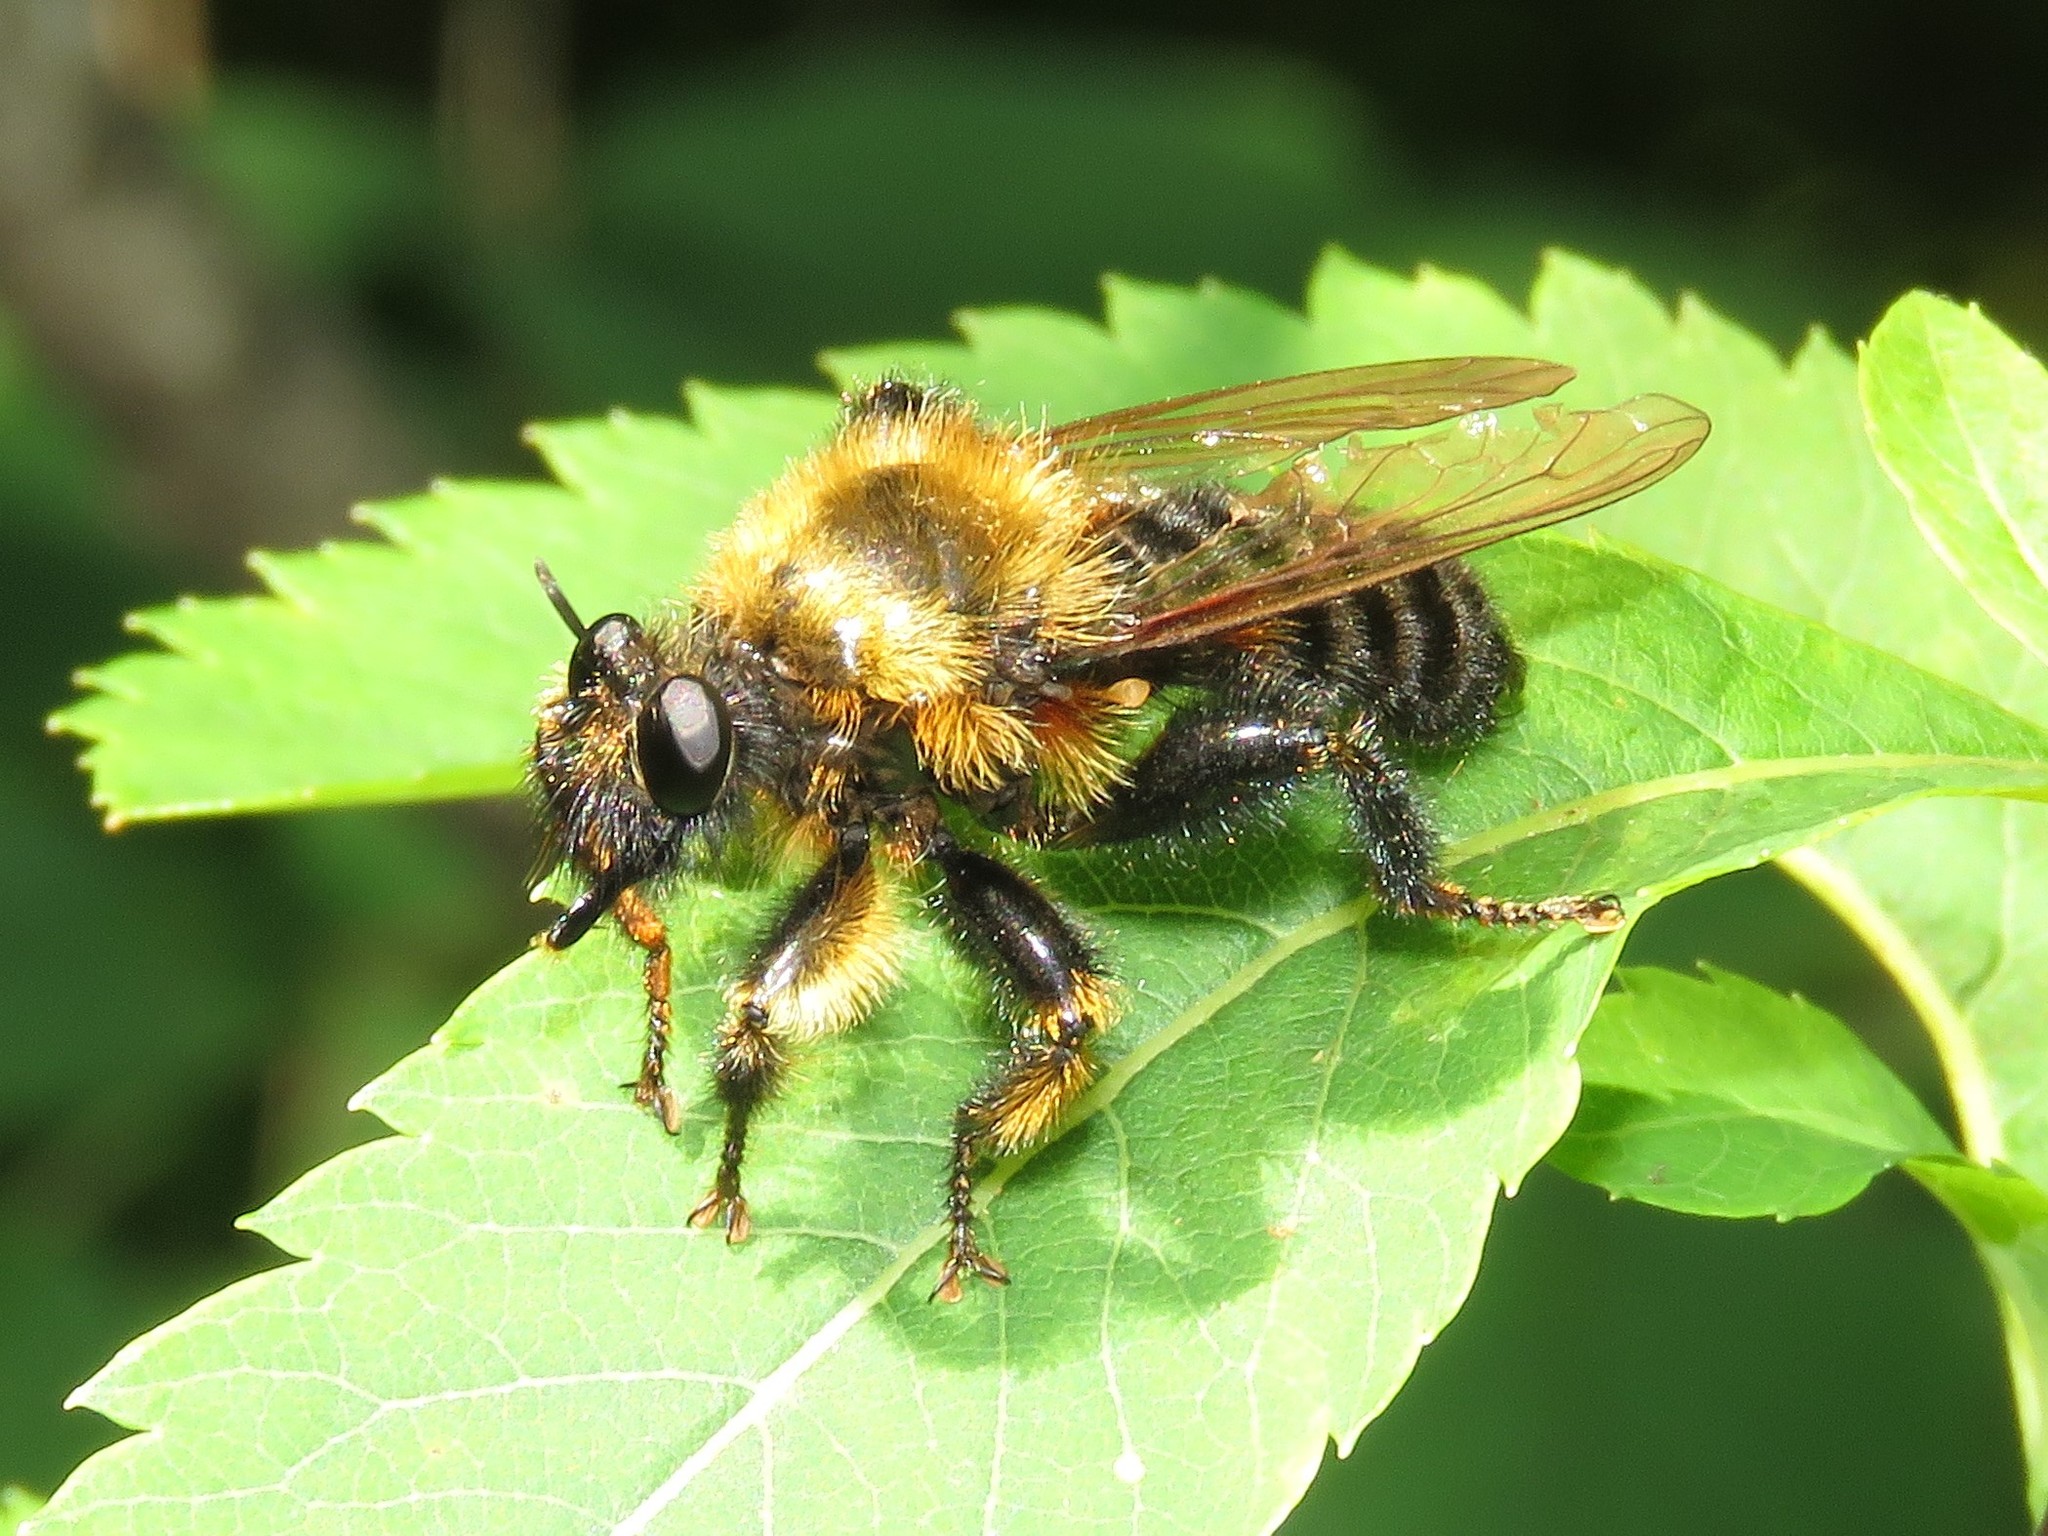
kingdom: Animalia
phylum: Arthropoda
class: Insecta
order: Diptera
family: Asilidae
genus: Laphria
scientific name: Laphria huron
